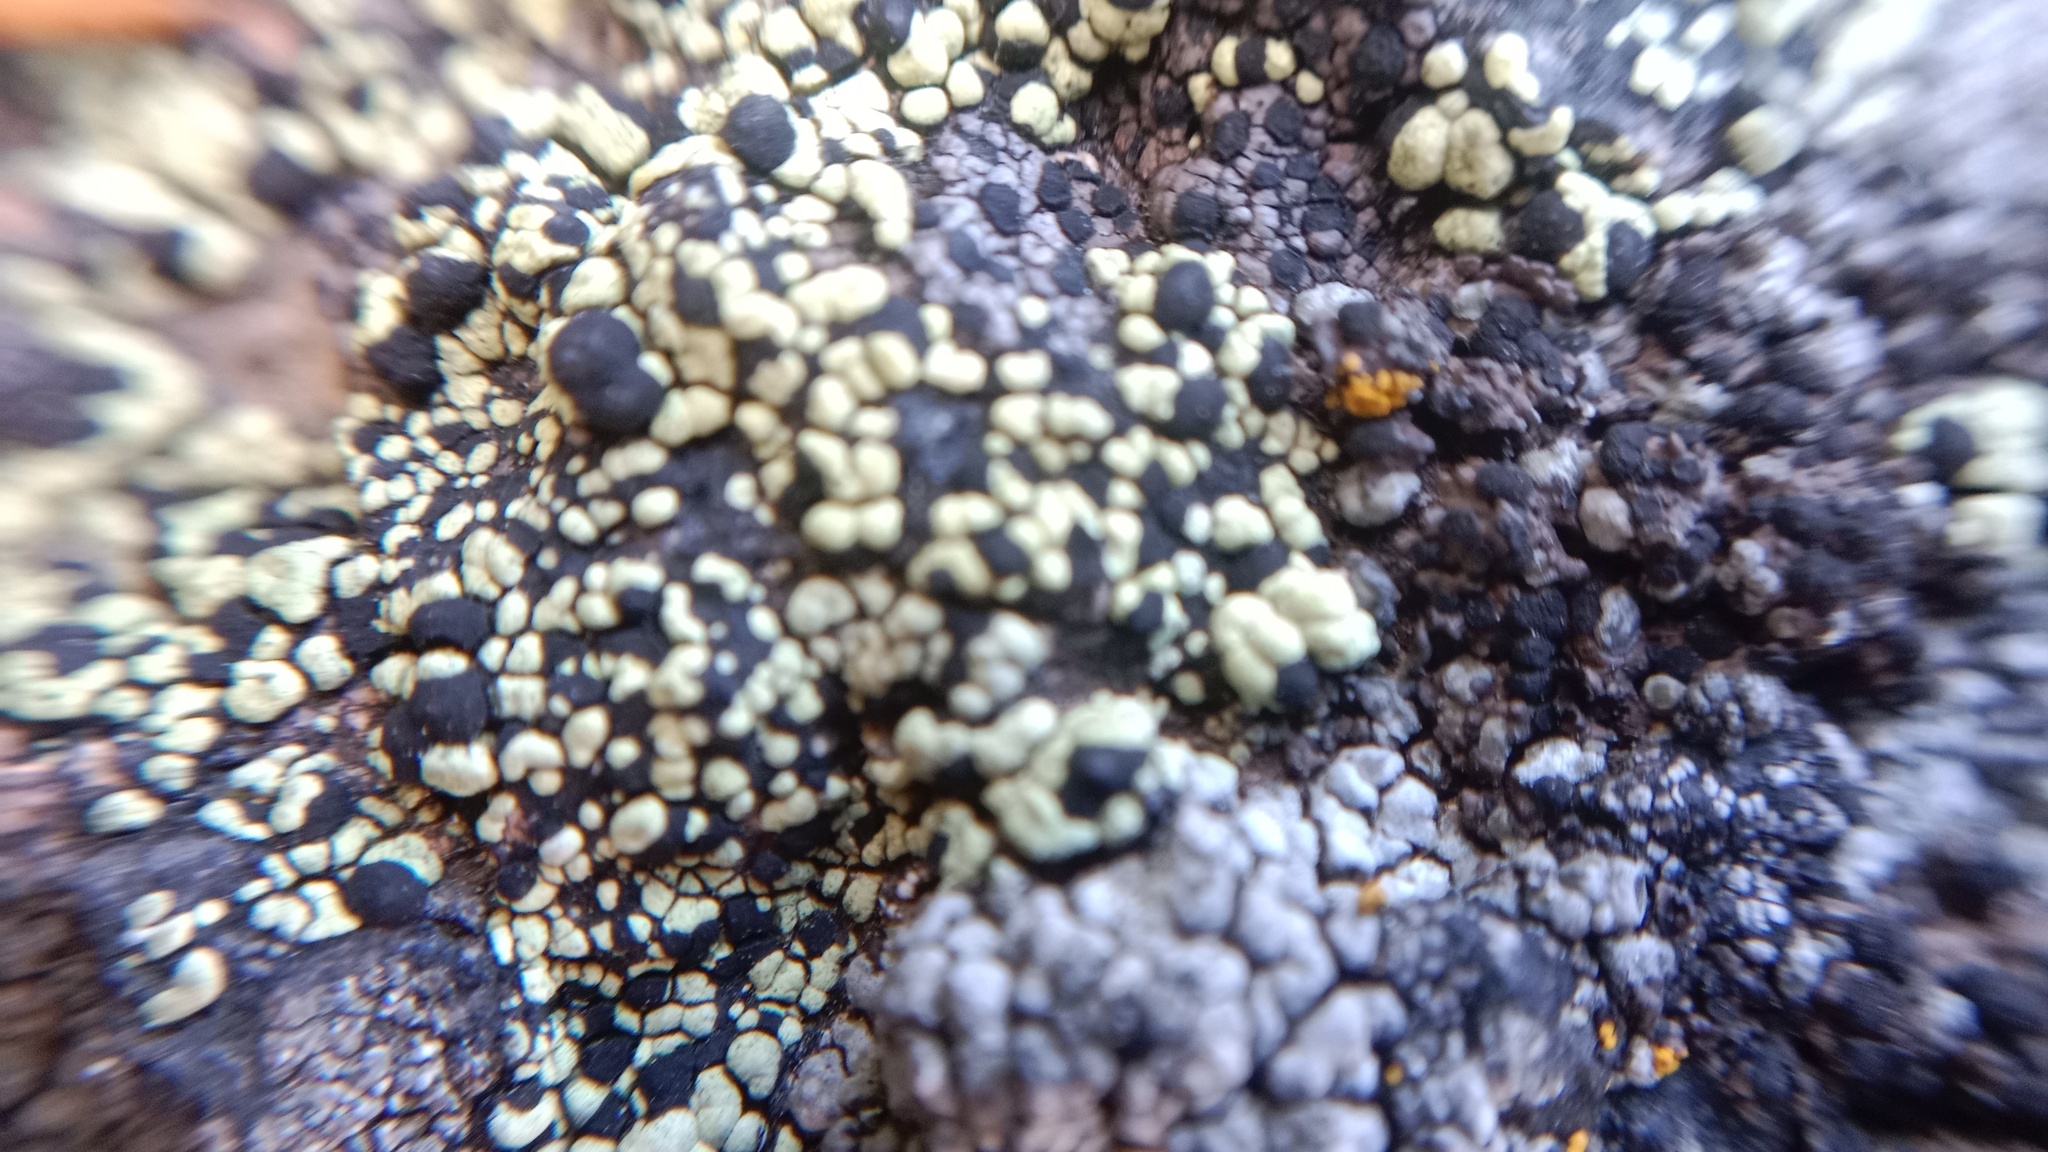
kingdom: Fungi
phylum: Ascomycota
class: Lecanoromycetes
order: Rhizocarpales
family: Rhizocarpaceae
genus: Rhizocarpon
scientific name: Rhizocarpon viridiatrum
